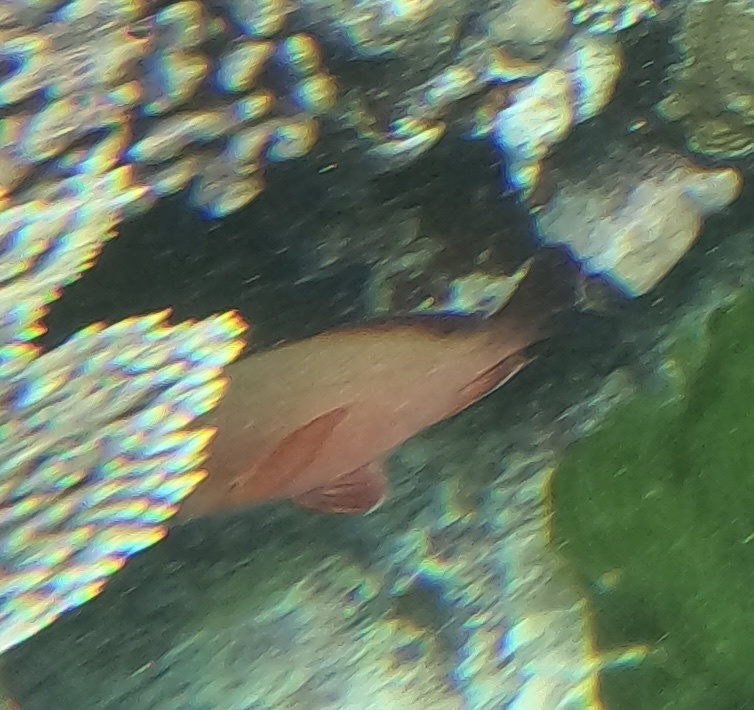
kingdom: Animalia
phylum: Chordata
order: Perciformes
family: Lutjanidae
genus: Lutjanus
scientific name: Lutjanus gibbus
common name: Humpback snapper
